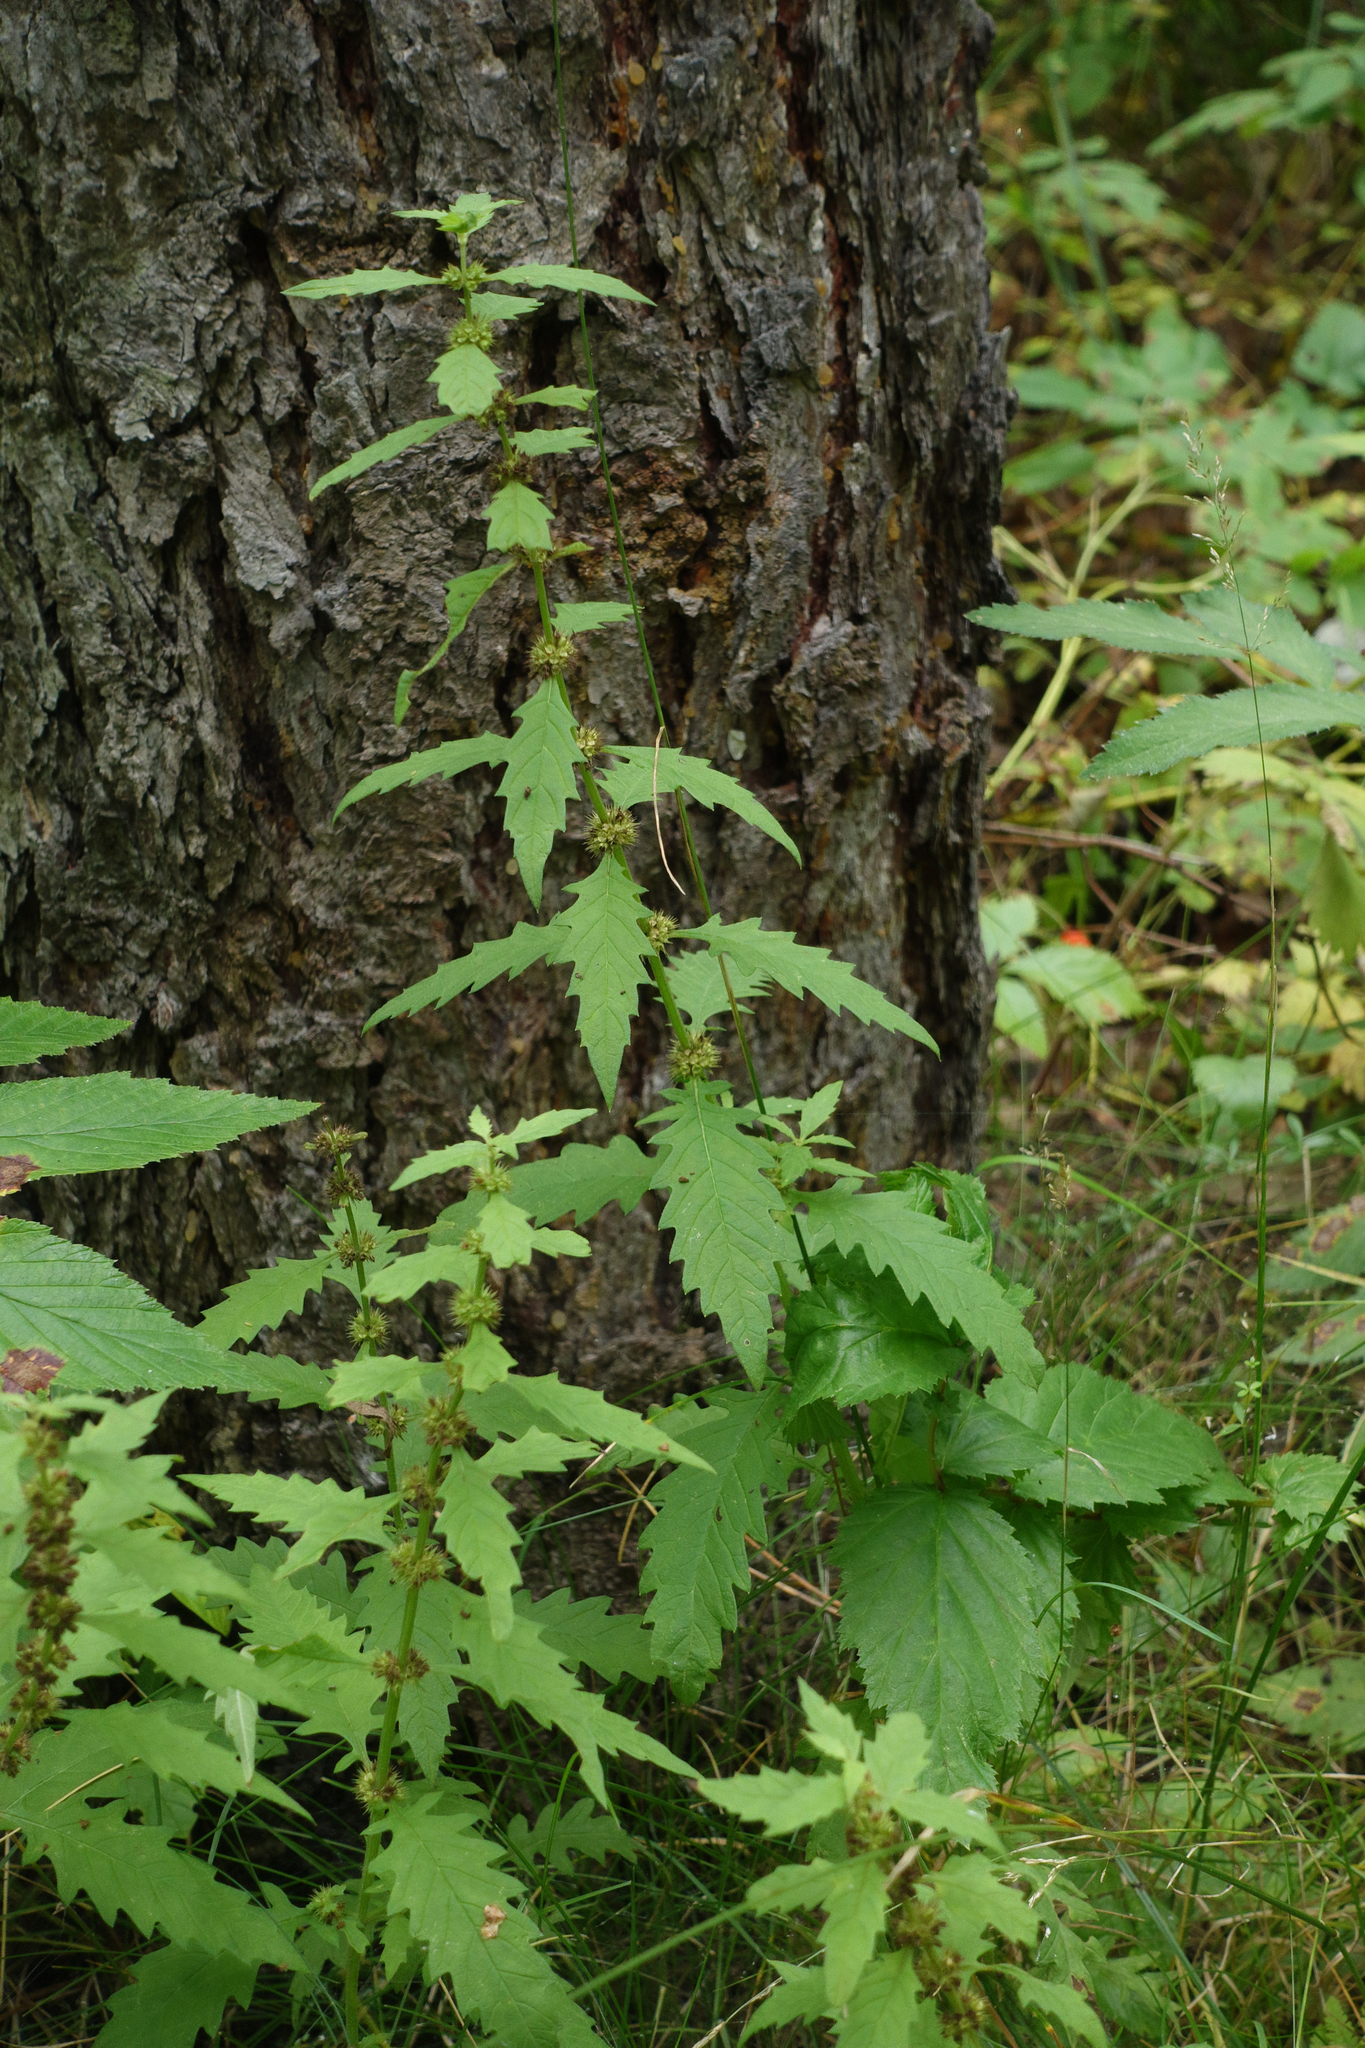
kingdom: Plantae
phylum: Tracheophyta
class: Magnoliopsida
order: Lamiales
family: Lamiaceae
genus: Lycopus
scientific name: Lycopus europaeus
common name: European bugleweed
